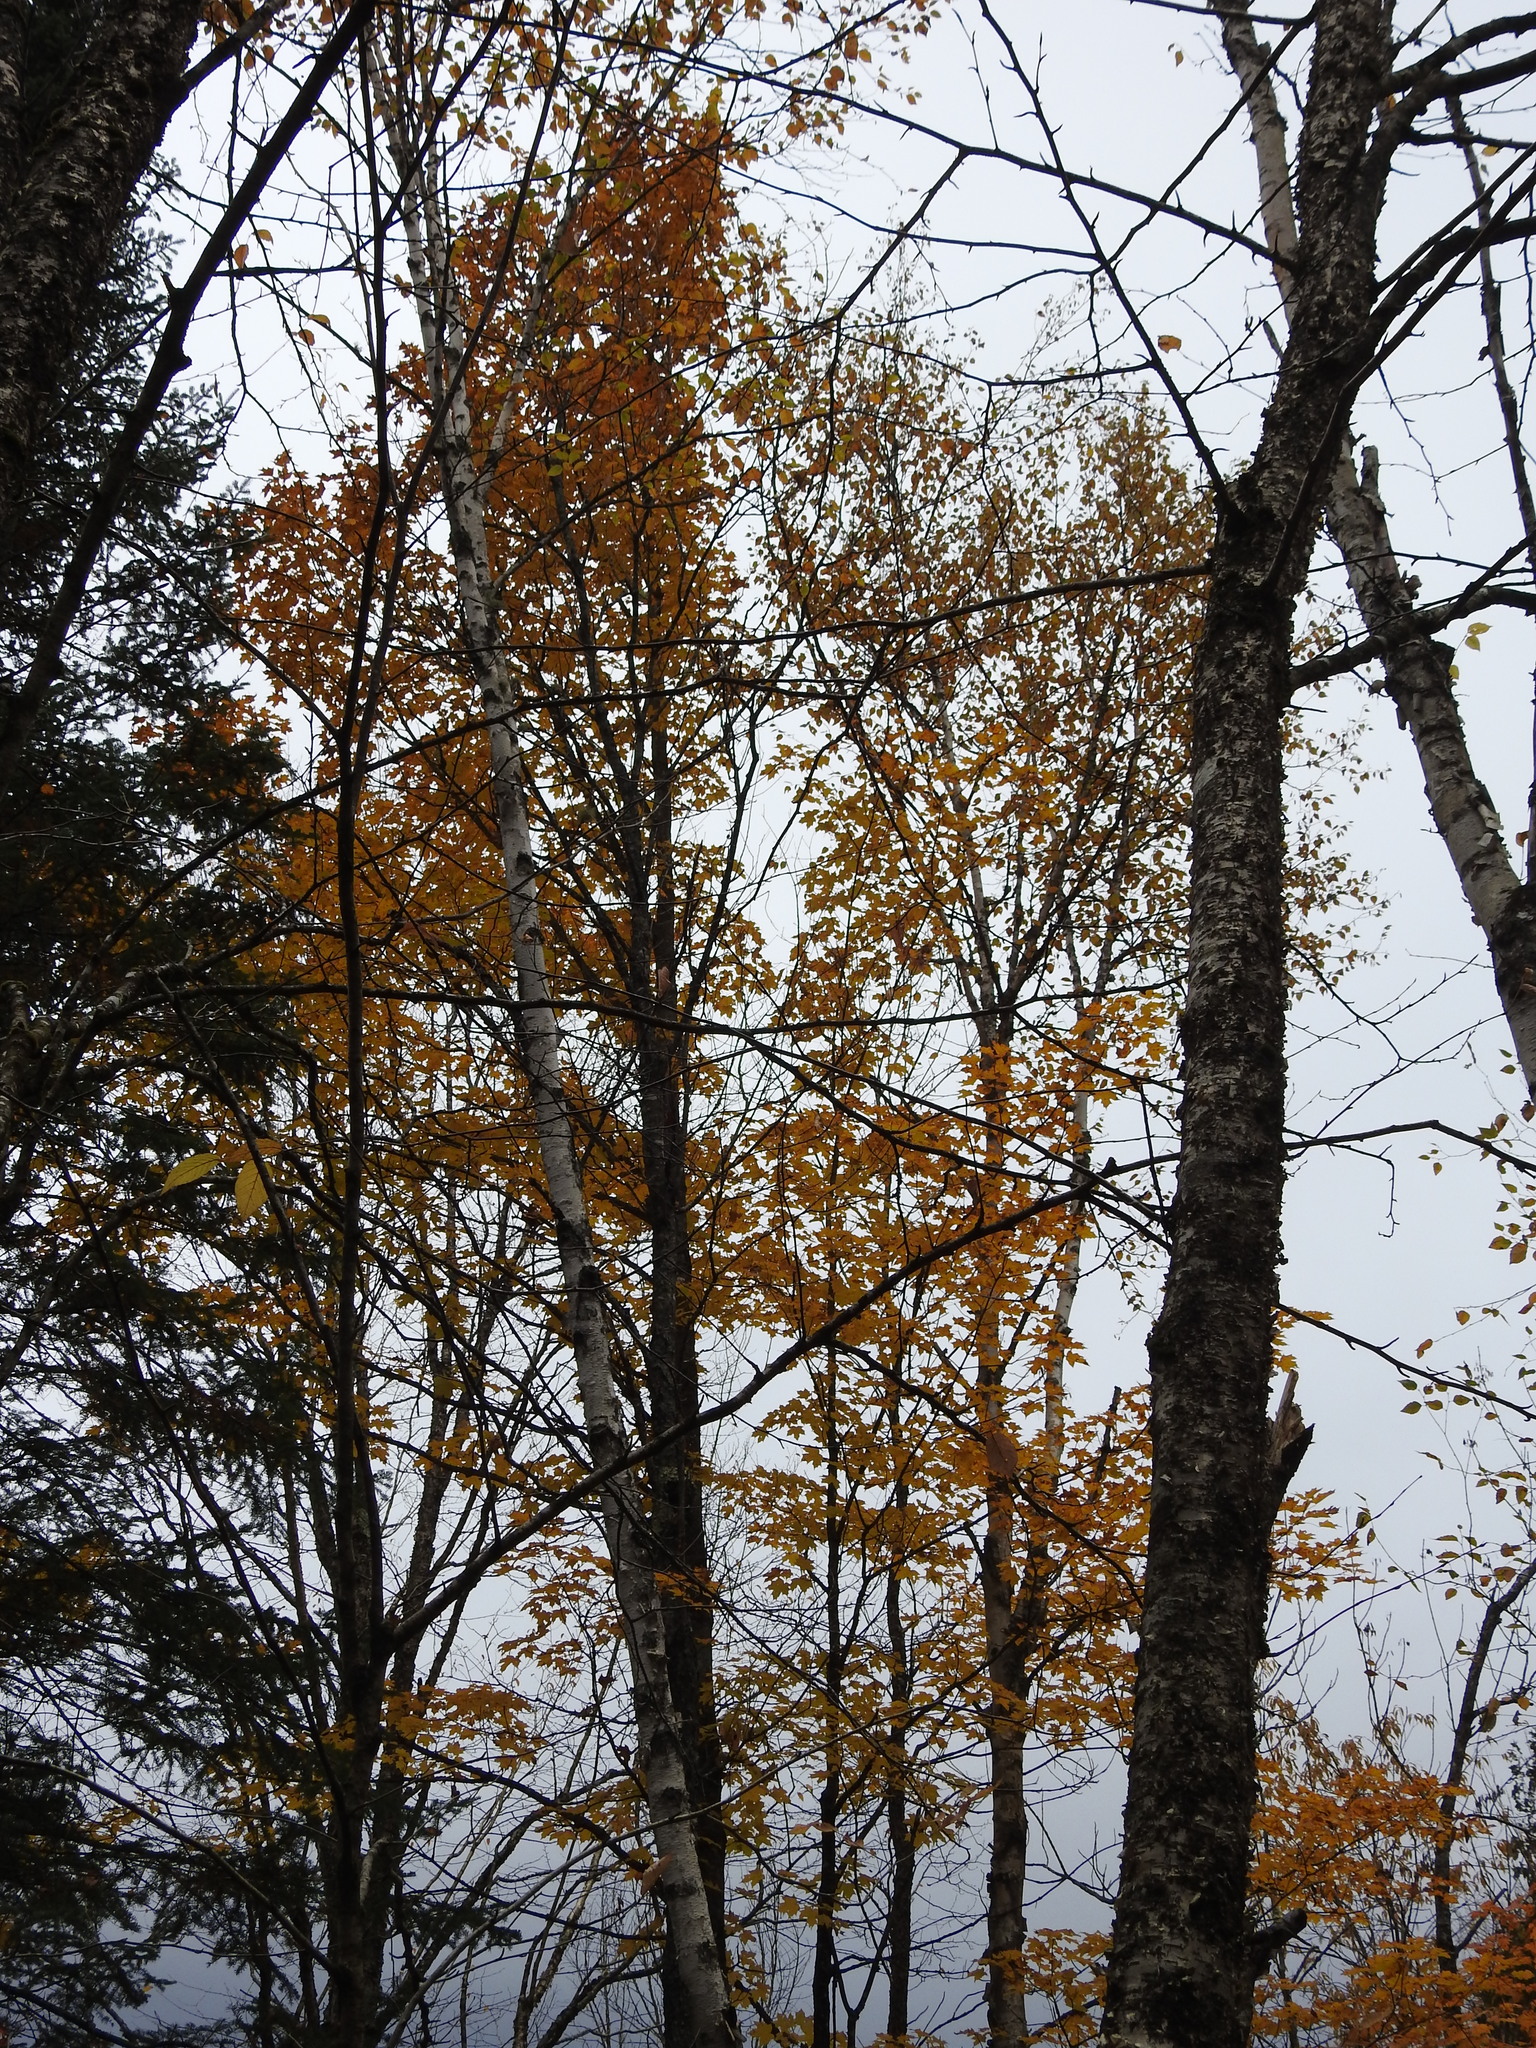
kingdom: Plantae
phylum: Tracheophyta
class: Magnoliopsida
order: Sapindales
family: Sapindaceae
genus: Acer
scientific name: Acer saccharum
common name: Sugar maple
